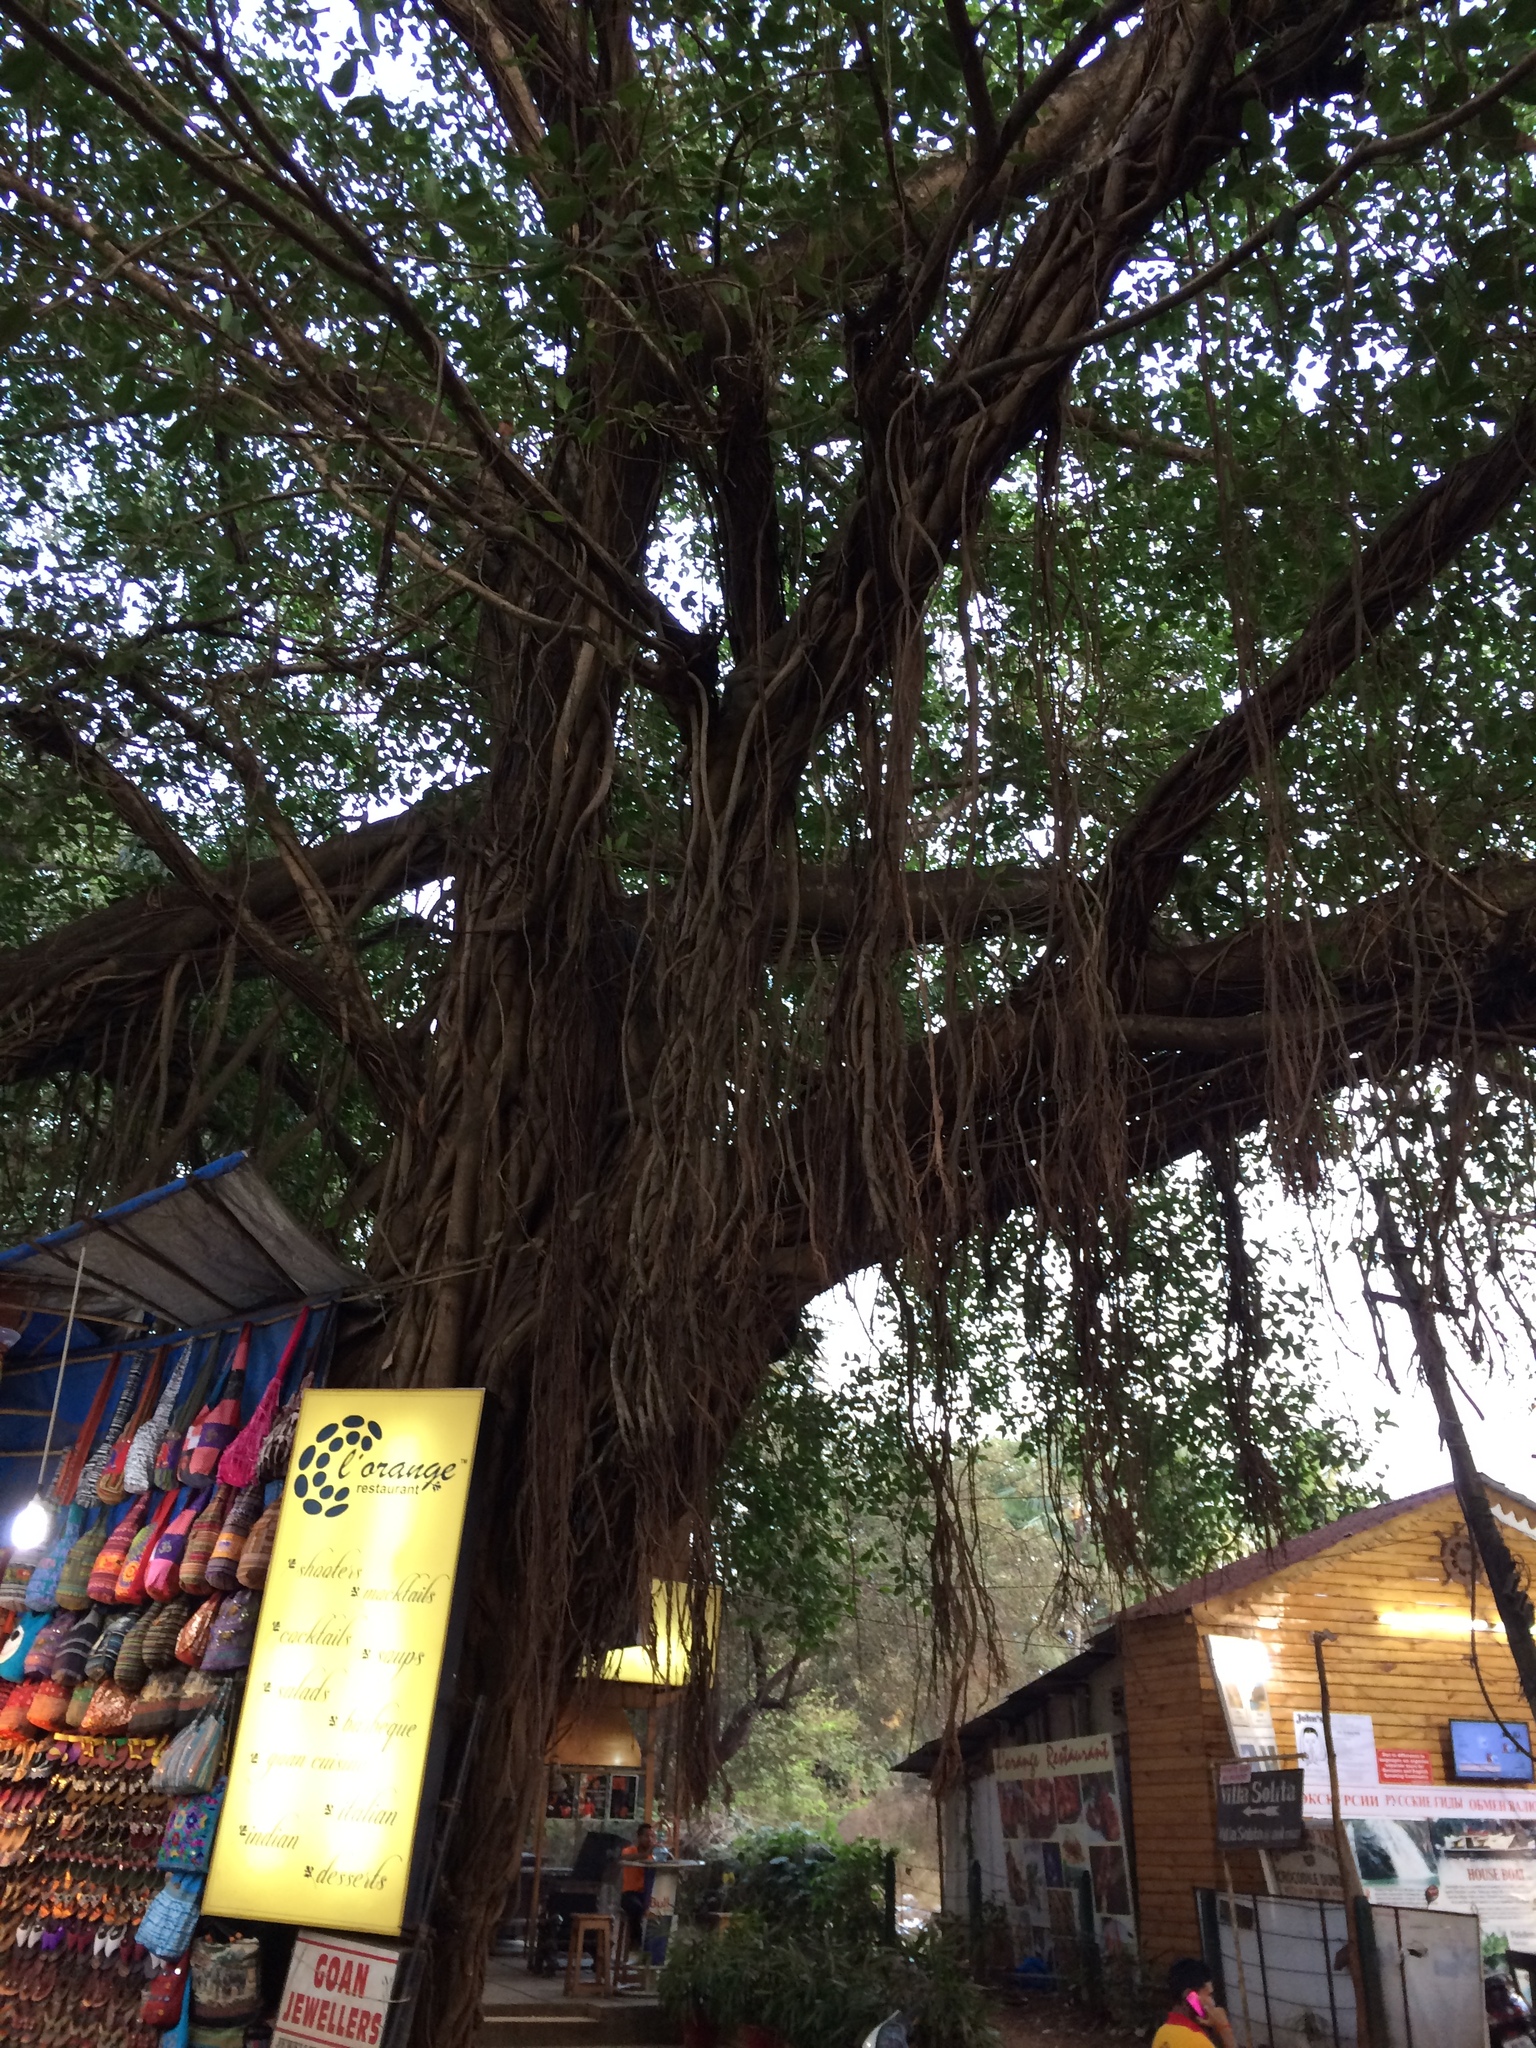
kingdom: Plantae
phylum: Tracheophyta
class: Magnoliopsida
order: Rosales
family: Moraceae
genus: Ficus
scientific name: Ficus benghalensis
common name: Indian banyan
